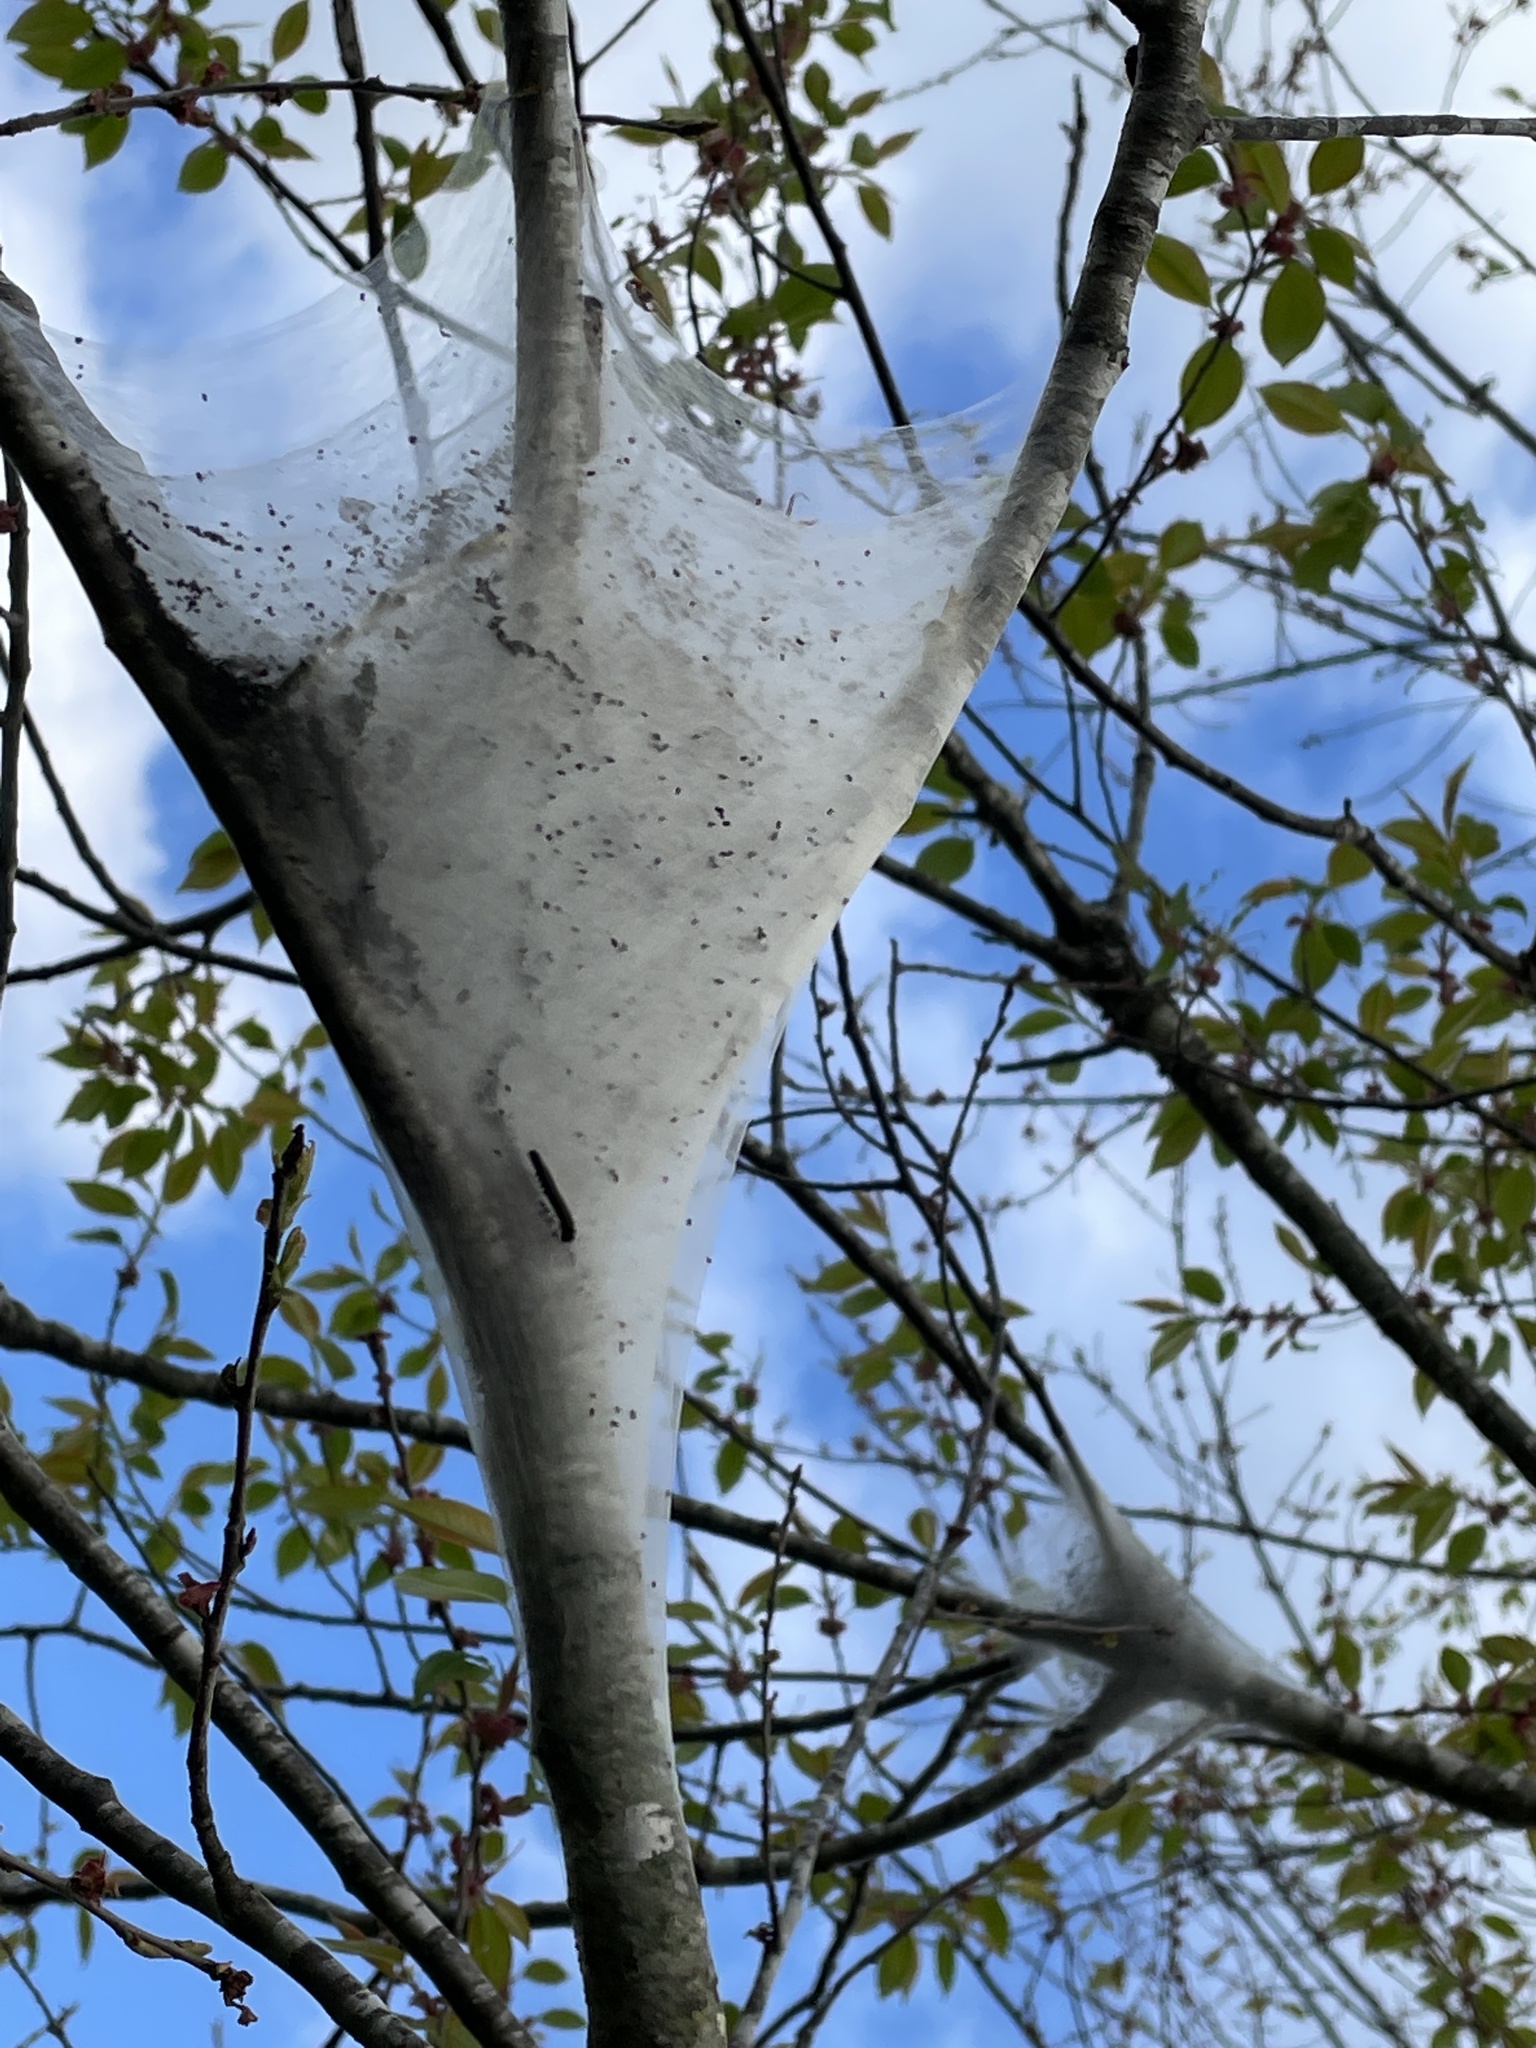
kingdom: Animalia
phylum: Arthropoda
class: Insecta
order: Lepidoptera
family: Lasiocampidae
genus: Malacosoma
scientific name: Malacosoma americana
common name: Eastern tent caterpillar moth
